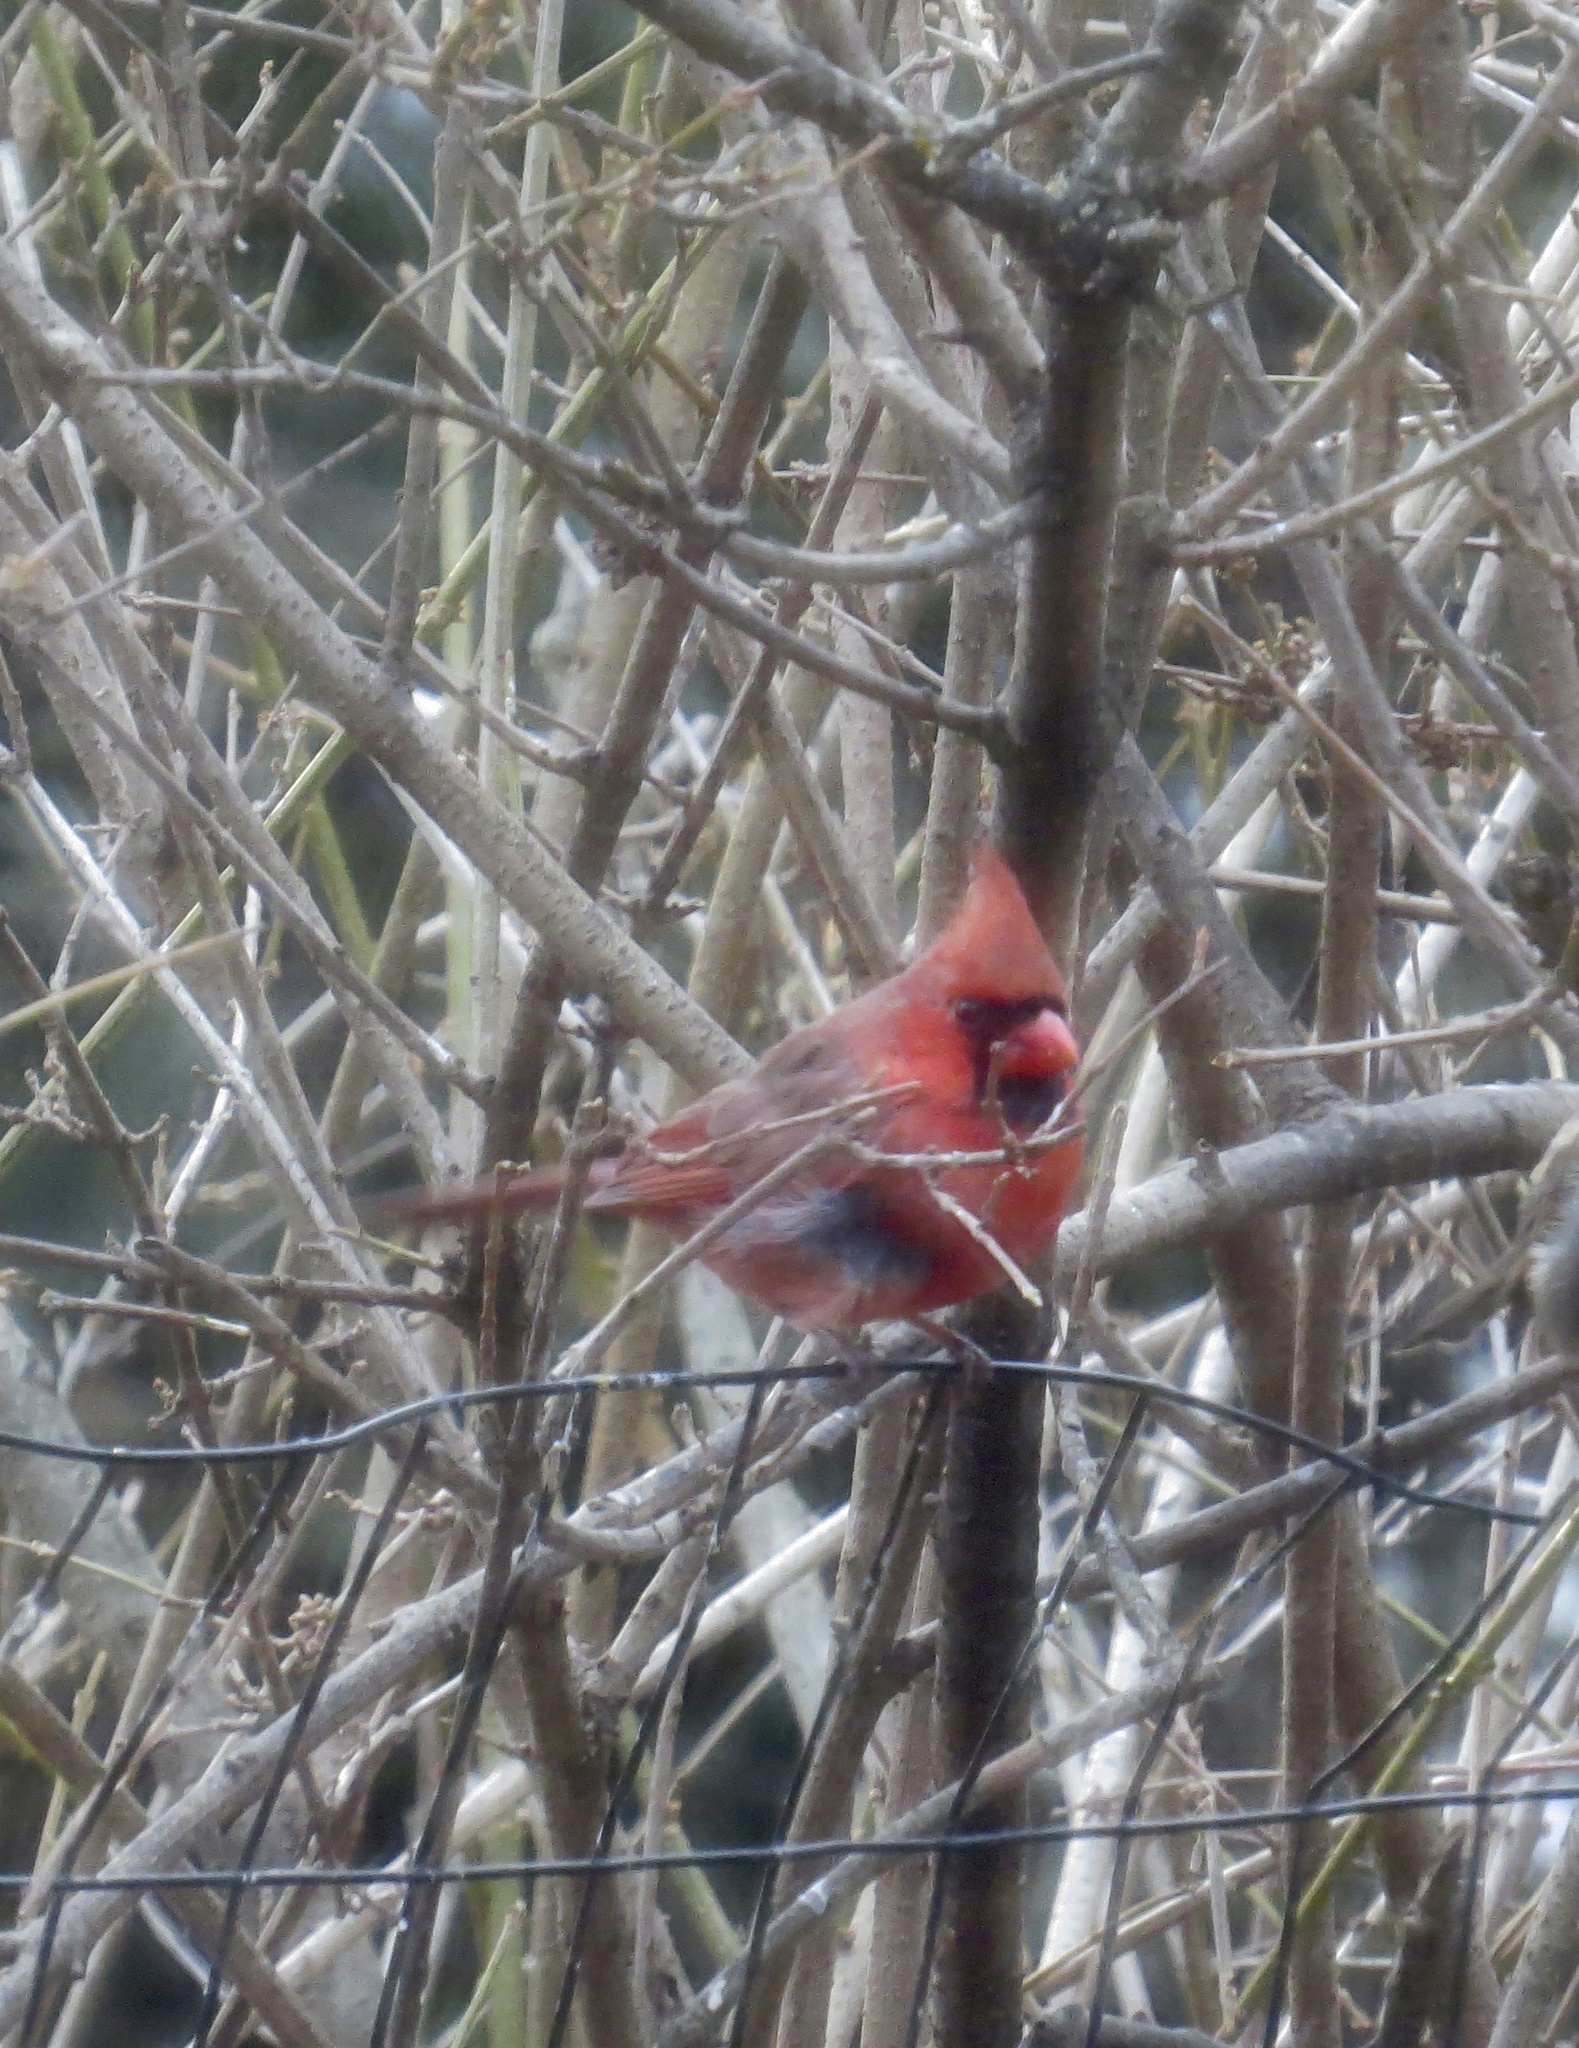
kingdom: Animalia
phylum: Chordata
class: Aves
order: Passeriformes
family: Cardinalidae
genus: Cardinalis
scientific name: Cardinalis cardinalis
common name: Northern cardinal
